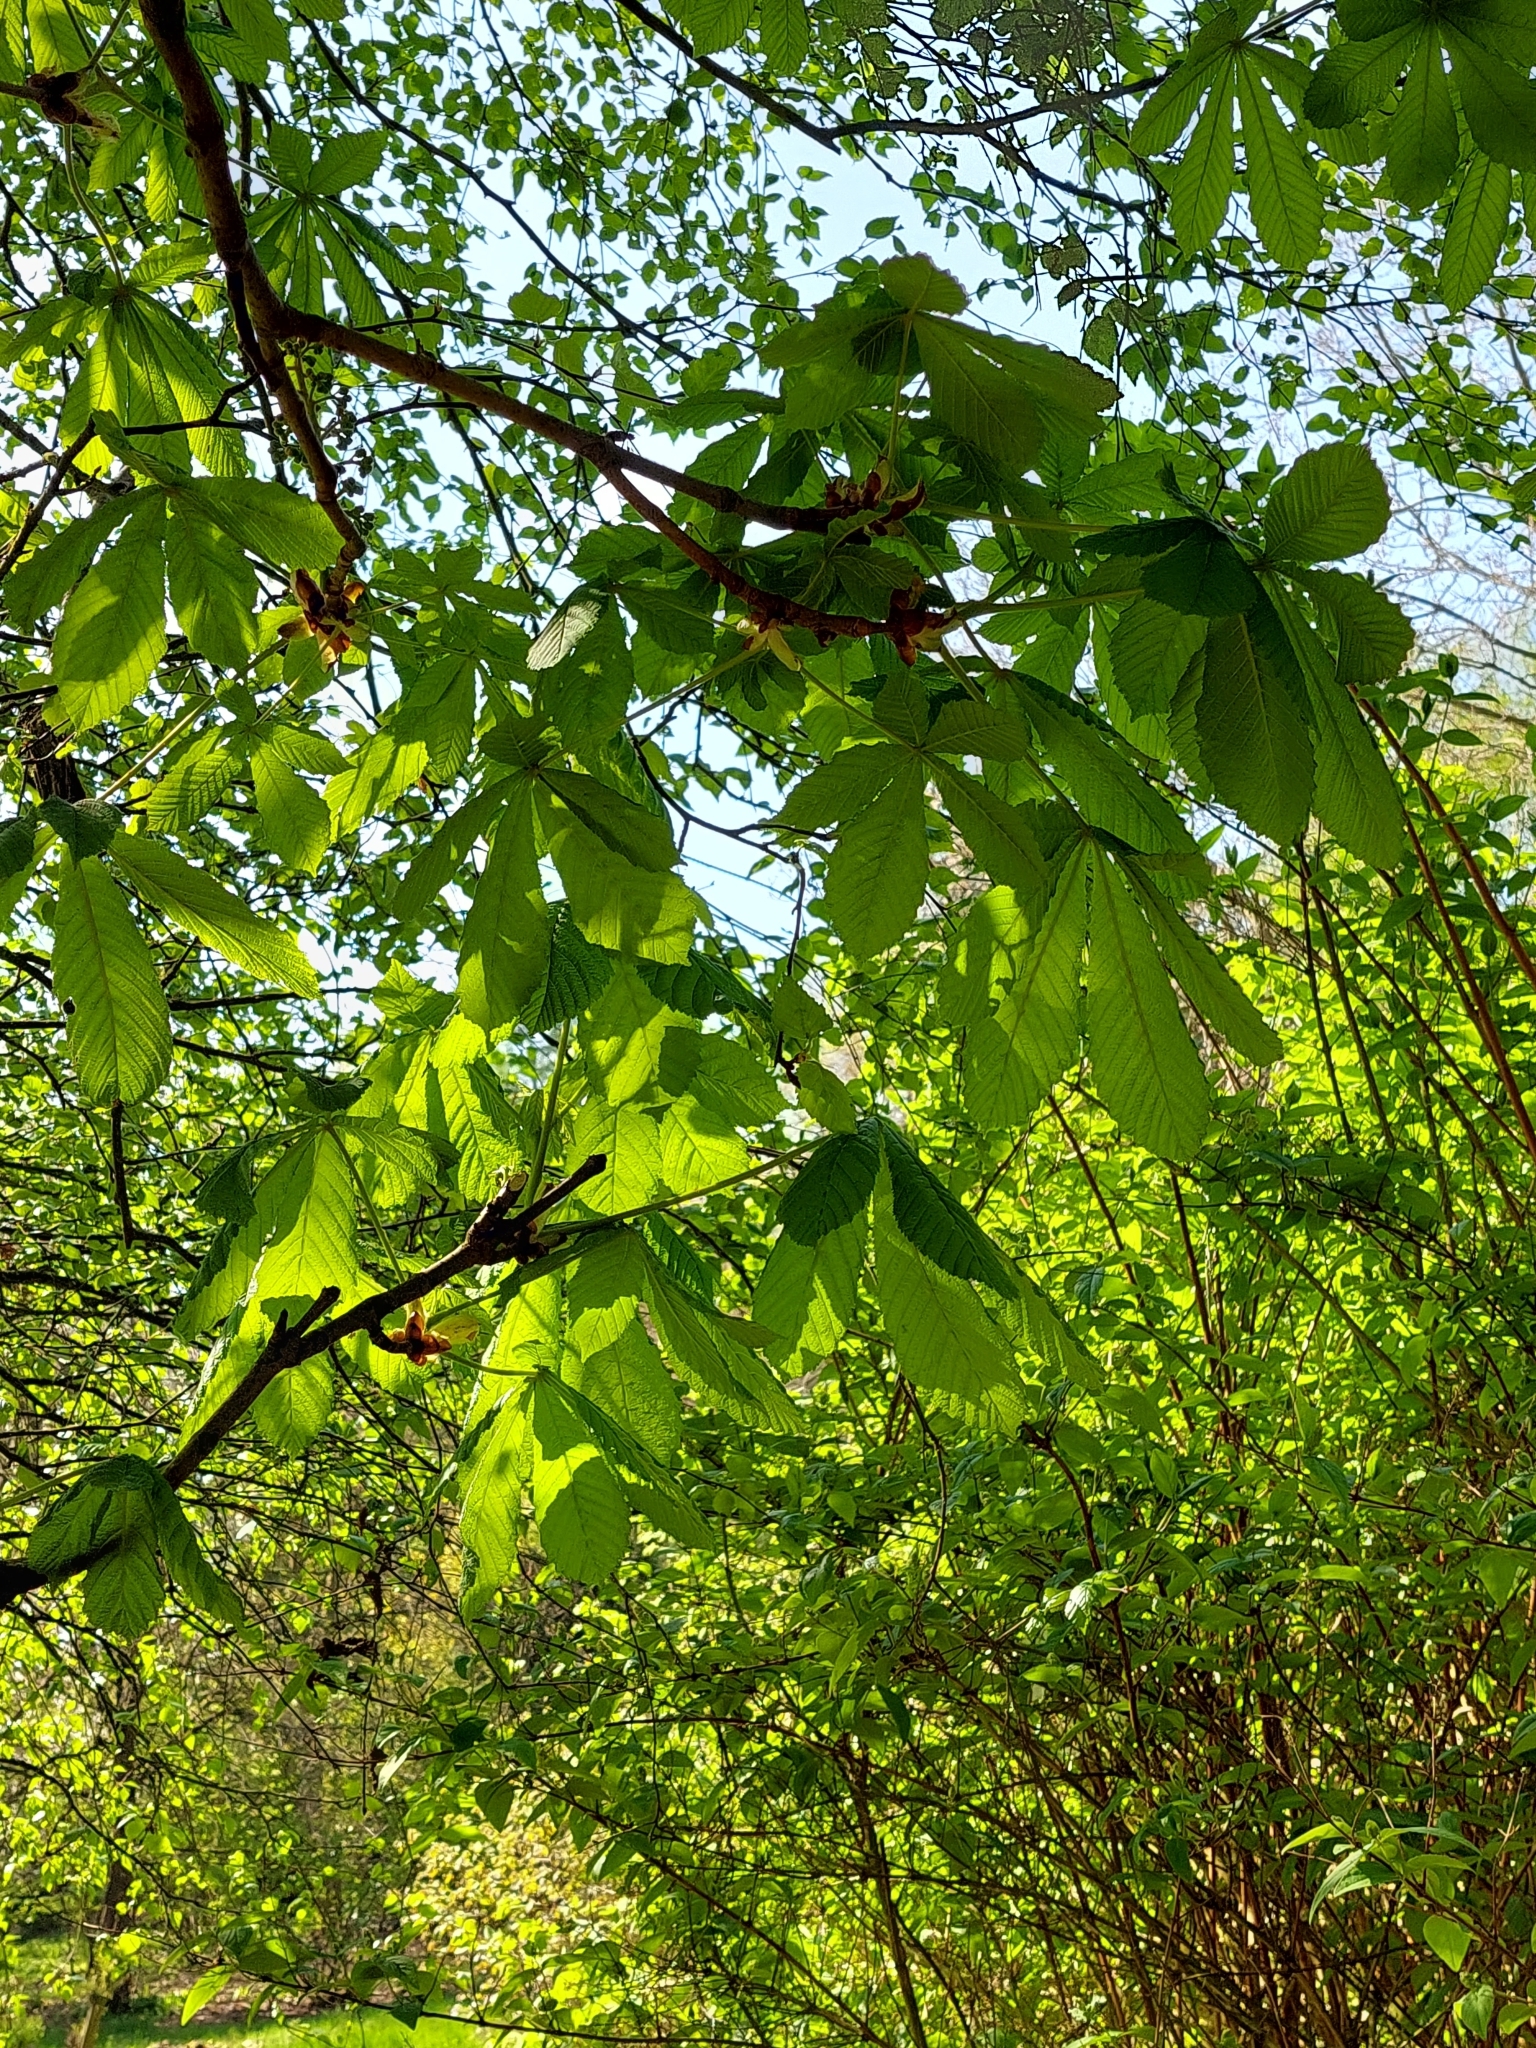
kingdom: Plantae
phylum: Tracheophyta
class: Magnoliopsida
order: Sapindales
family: Sapindaceae
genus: Aesculus
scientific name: Aesculus hippocastanum
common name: Horse-chestnut
